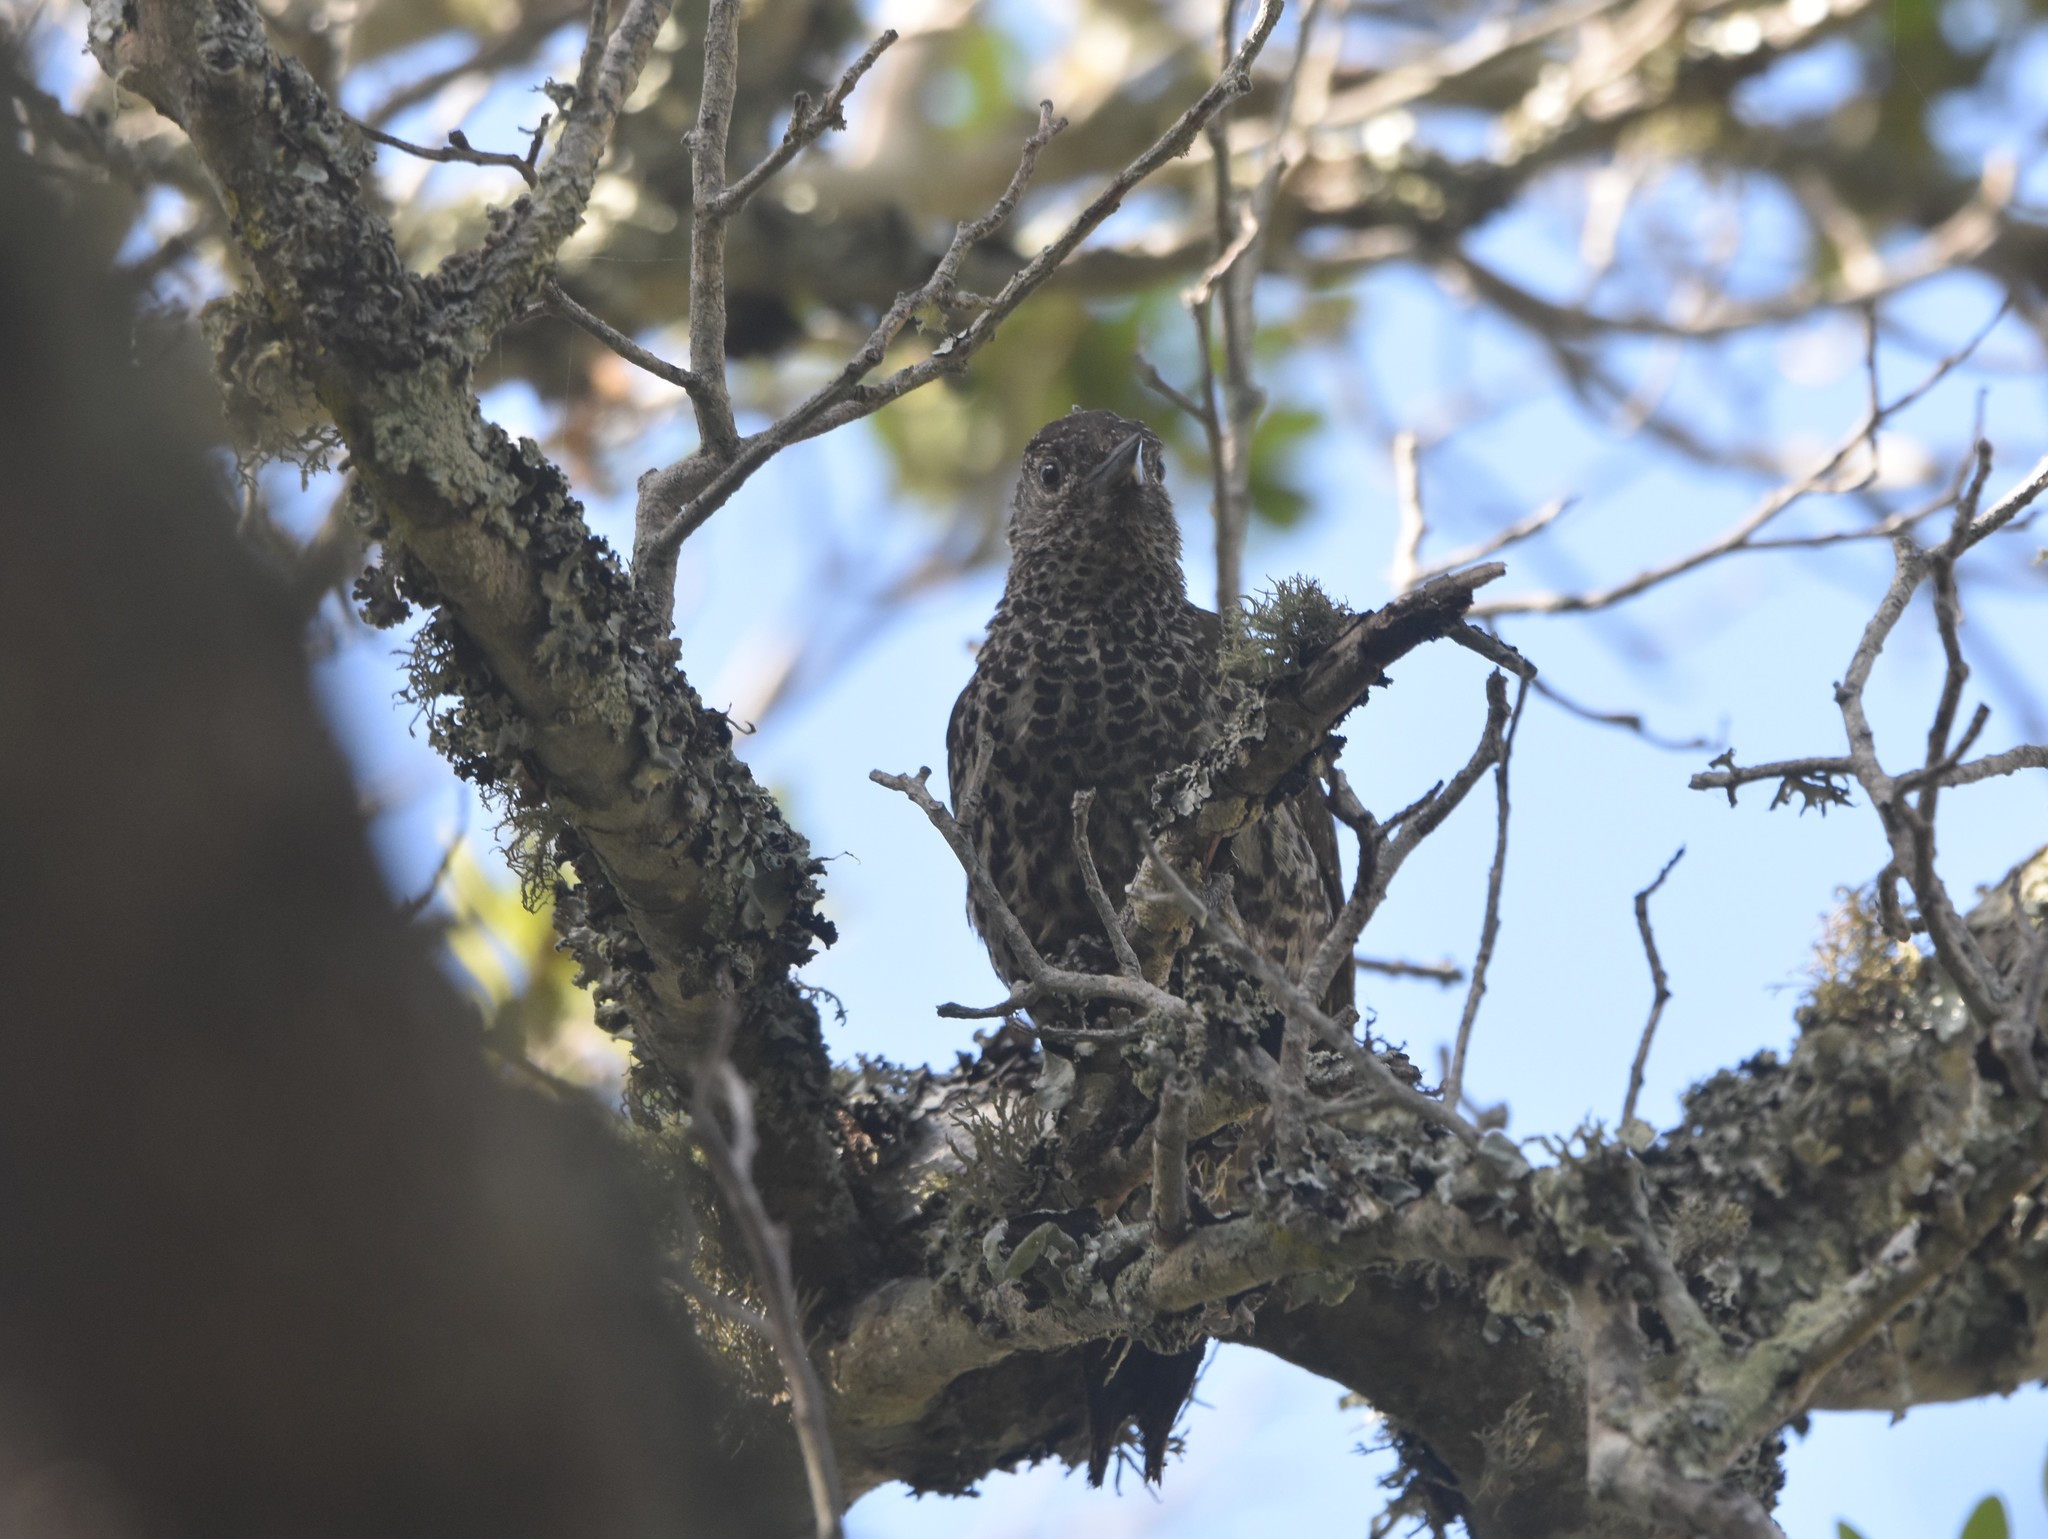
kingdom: Animalia
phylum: Chordata
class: Aves
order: Piciformes
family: Picidae
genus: Campethera
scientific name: Campethera notata
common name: Knysna woodpecker
